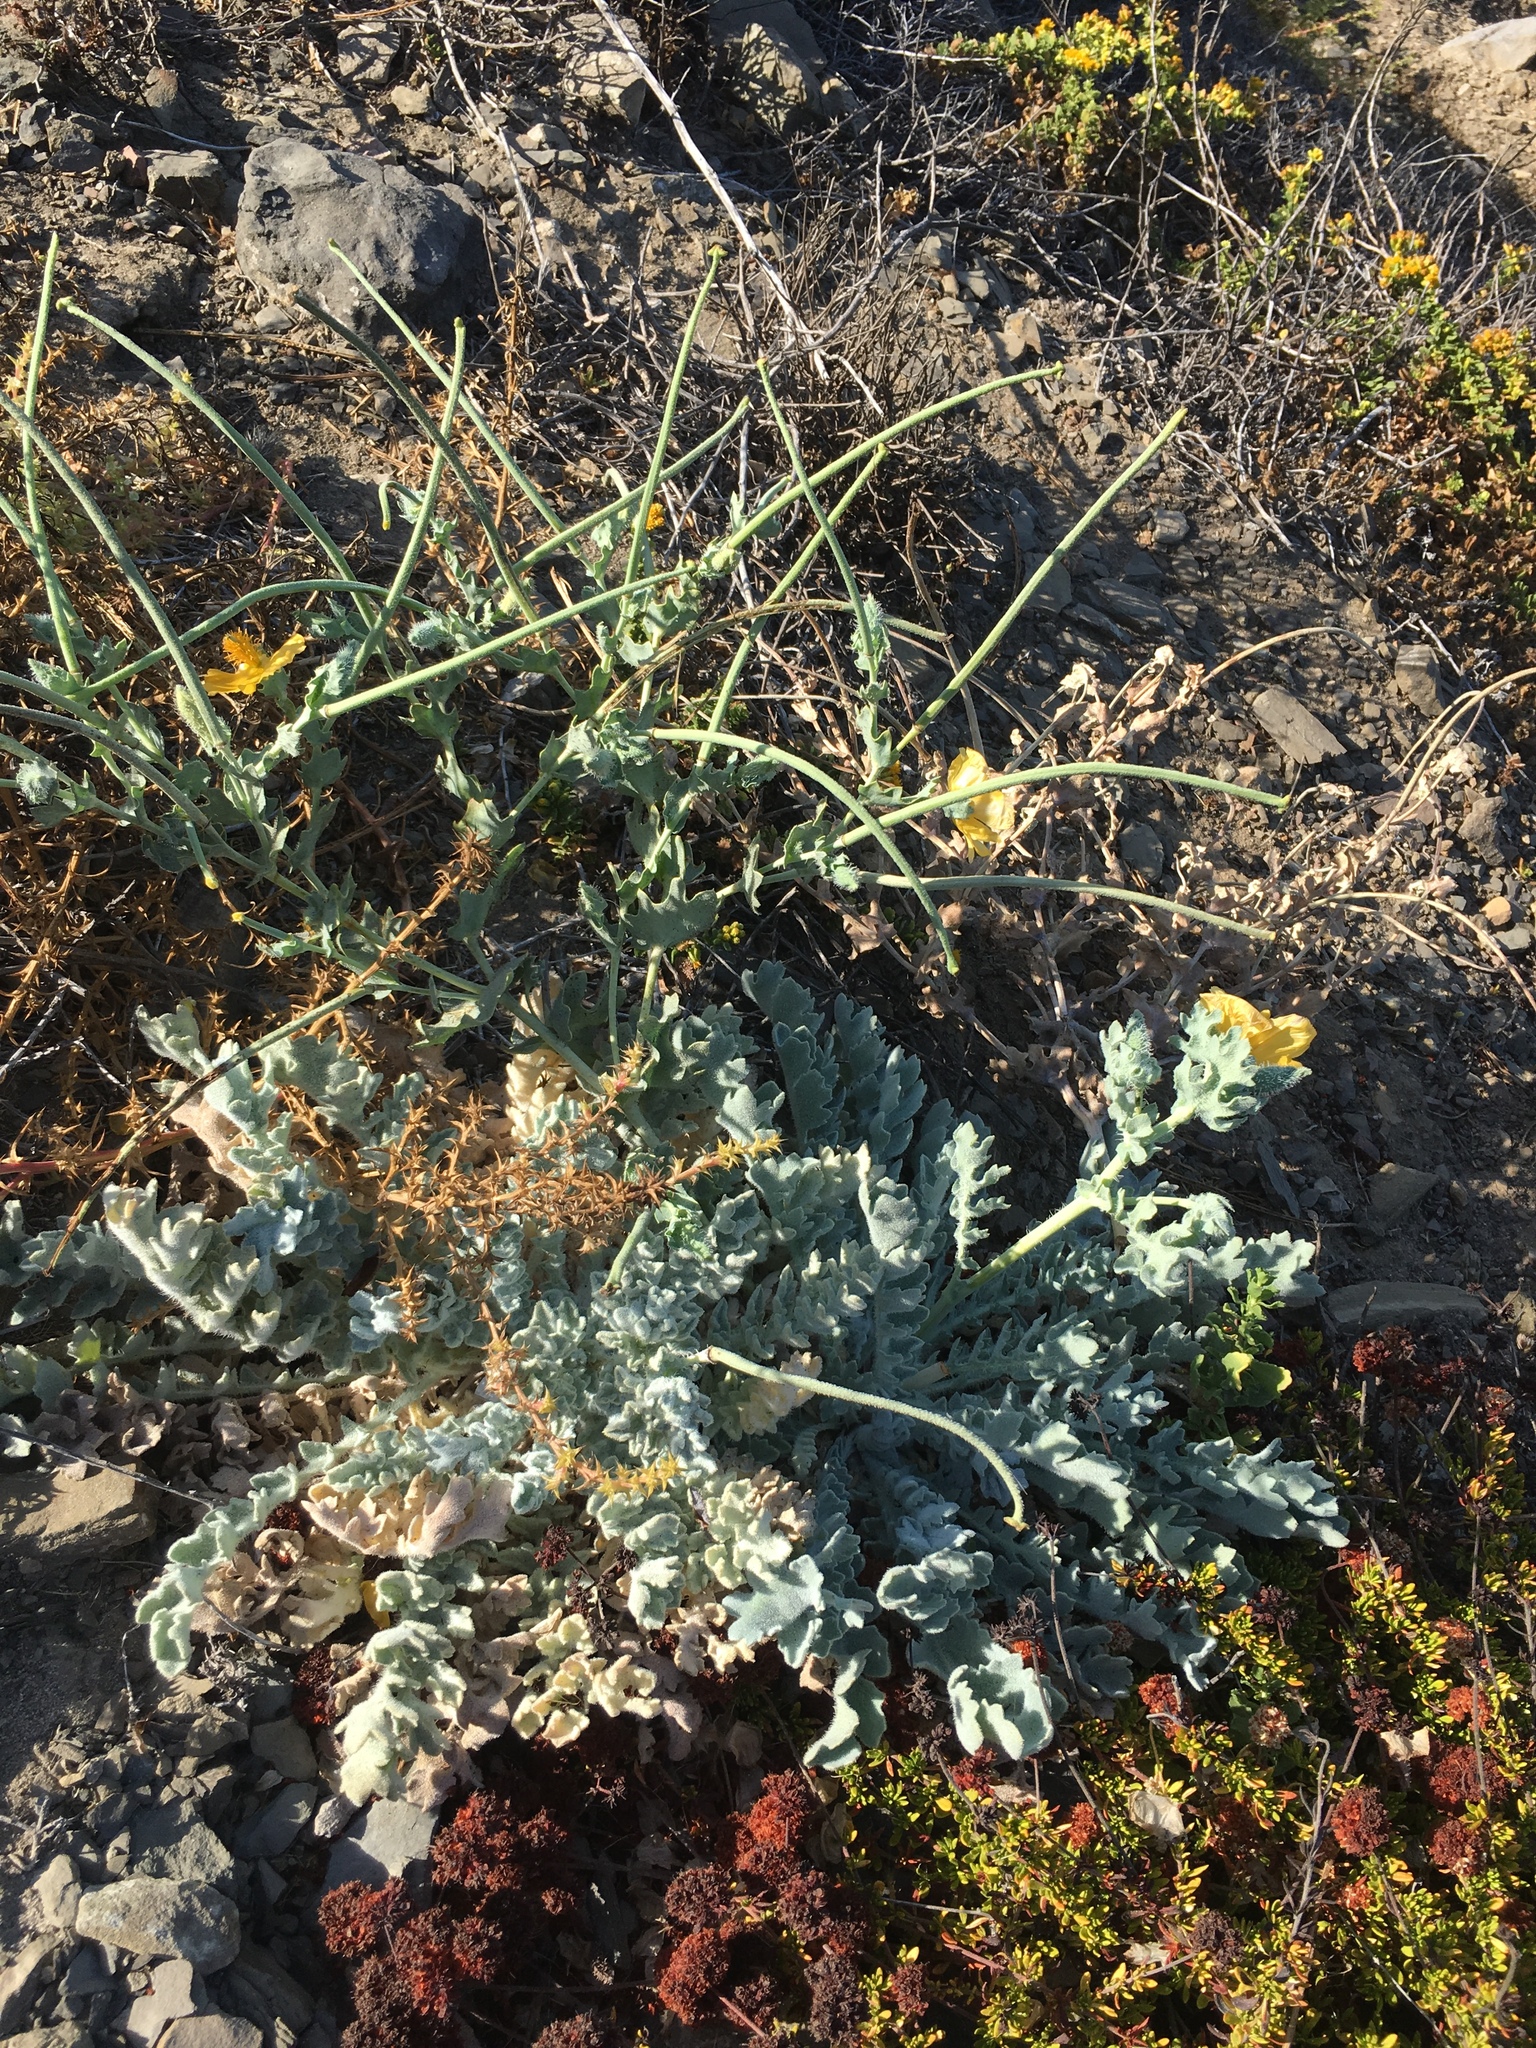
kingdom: Plantae
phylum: Tracheophyta
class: Magnoliopsida
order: Ranunculales
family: Papaveraceae
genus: Glaucium
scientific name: Glaucium flavum
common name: Yellow horned-poppy
